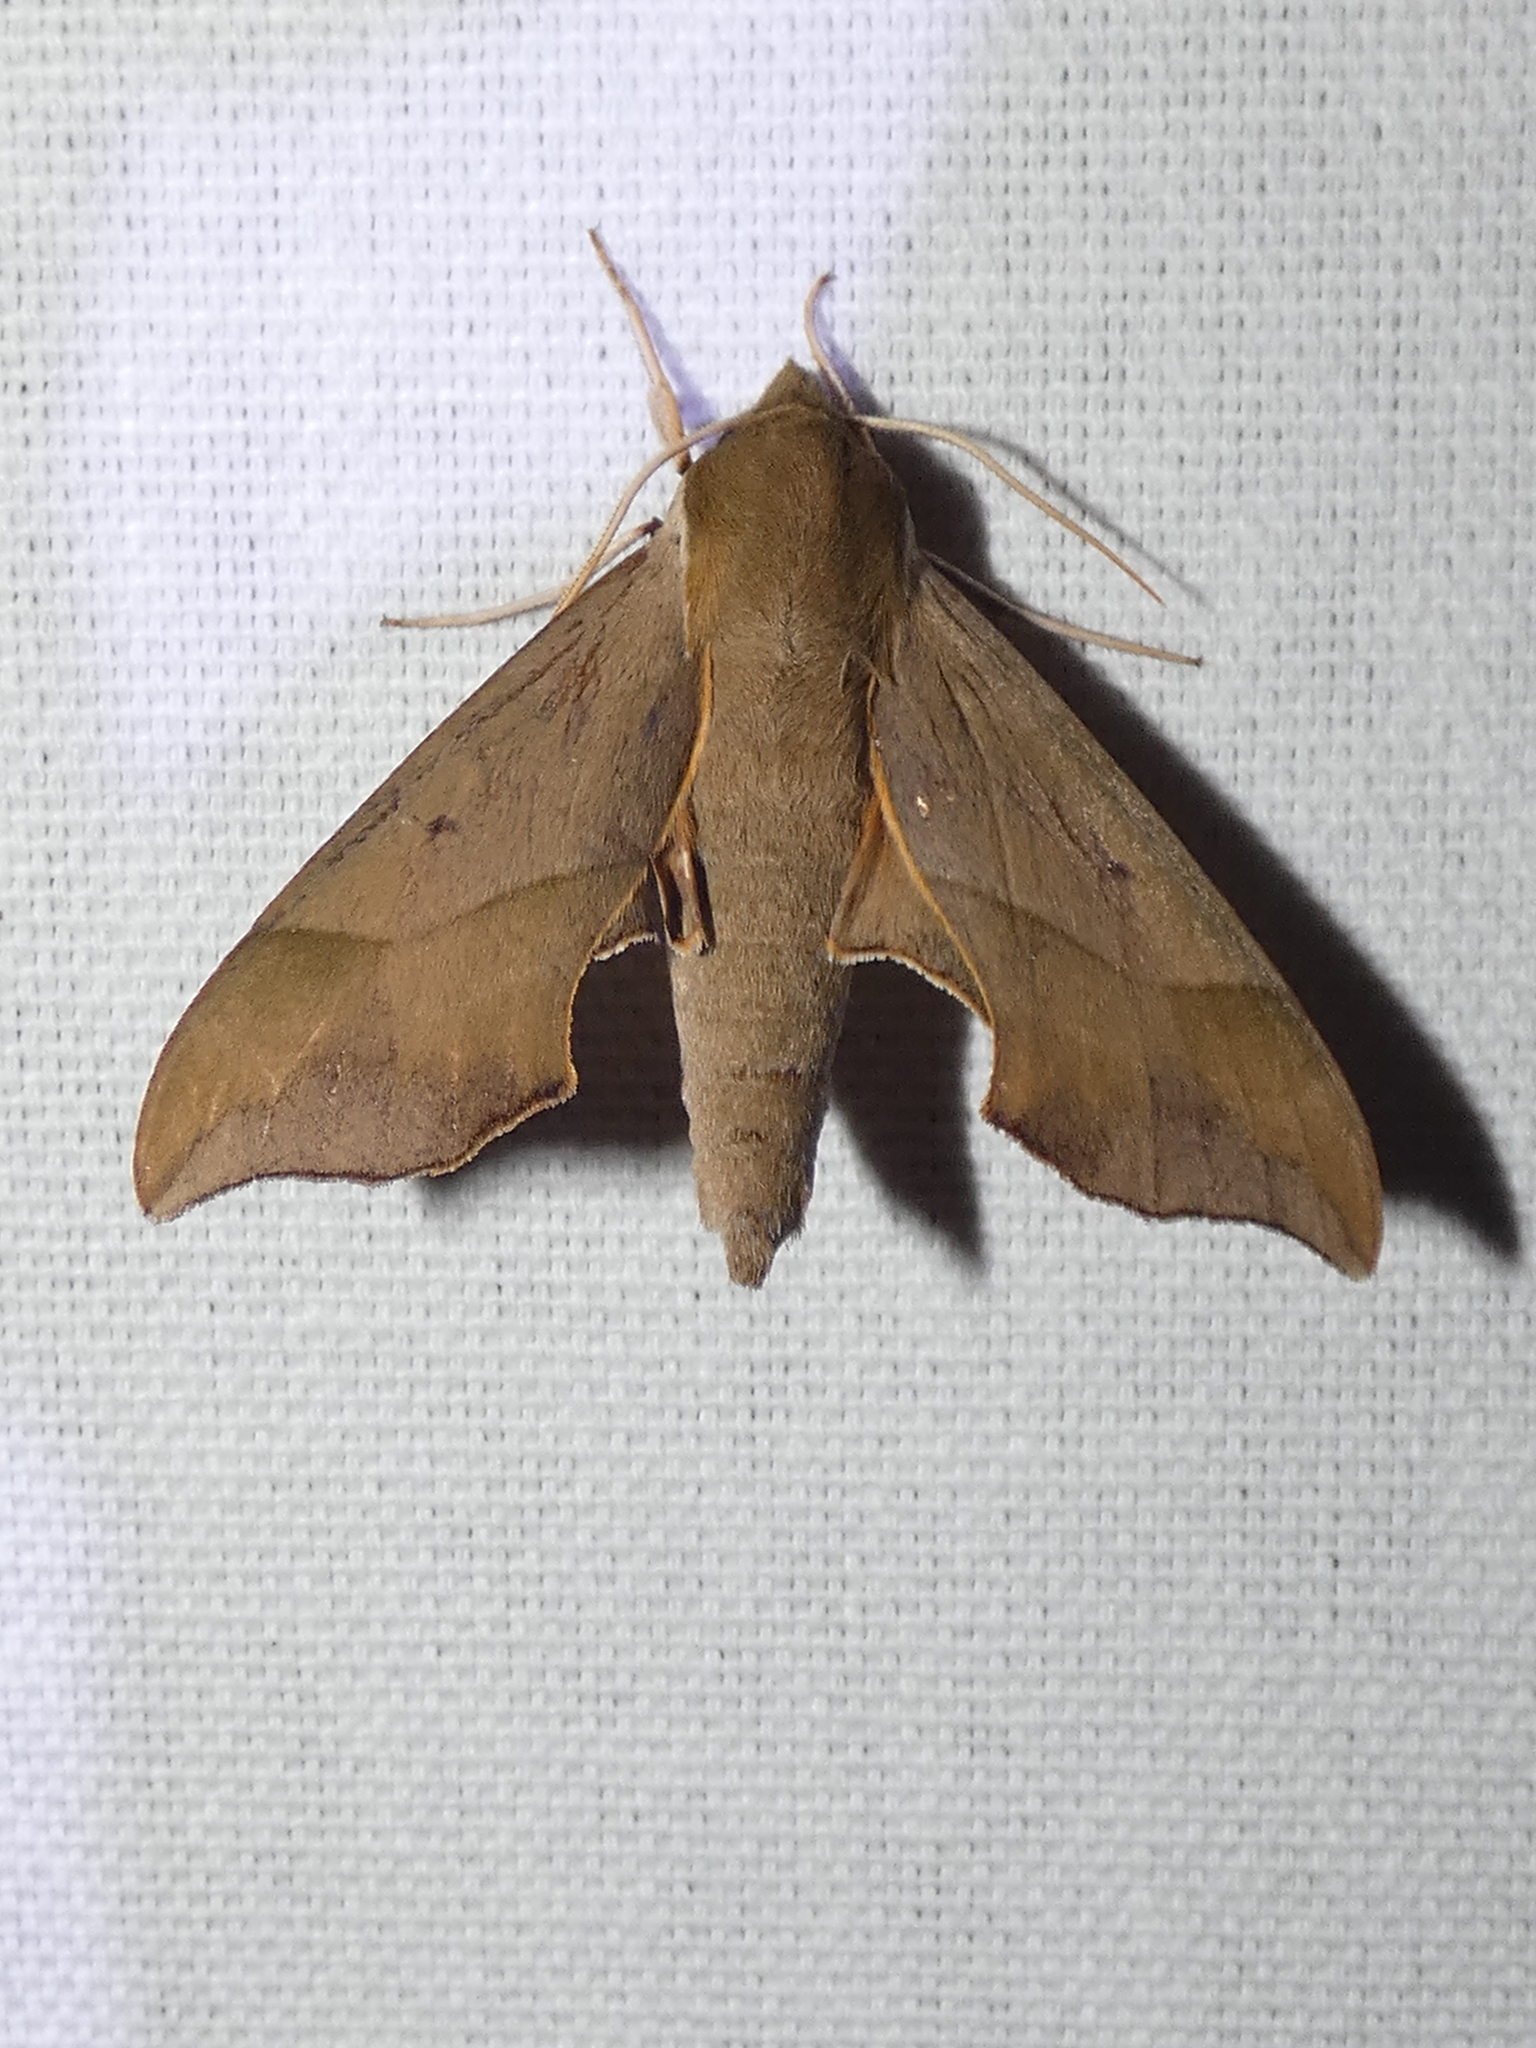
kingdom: Animalia
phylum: Arthropoda
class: Insecta
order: Lepidoptera
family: Sphingidae
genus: Darapsa
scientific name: Darapsa myron
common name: Hog sphinx
